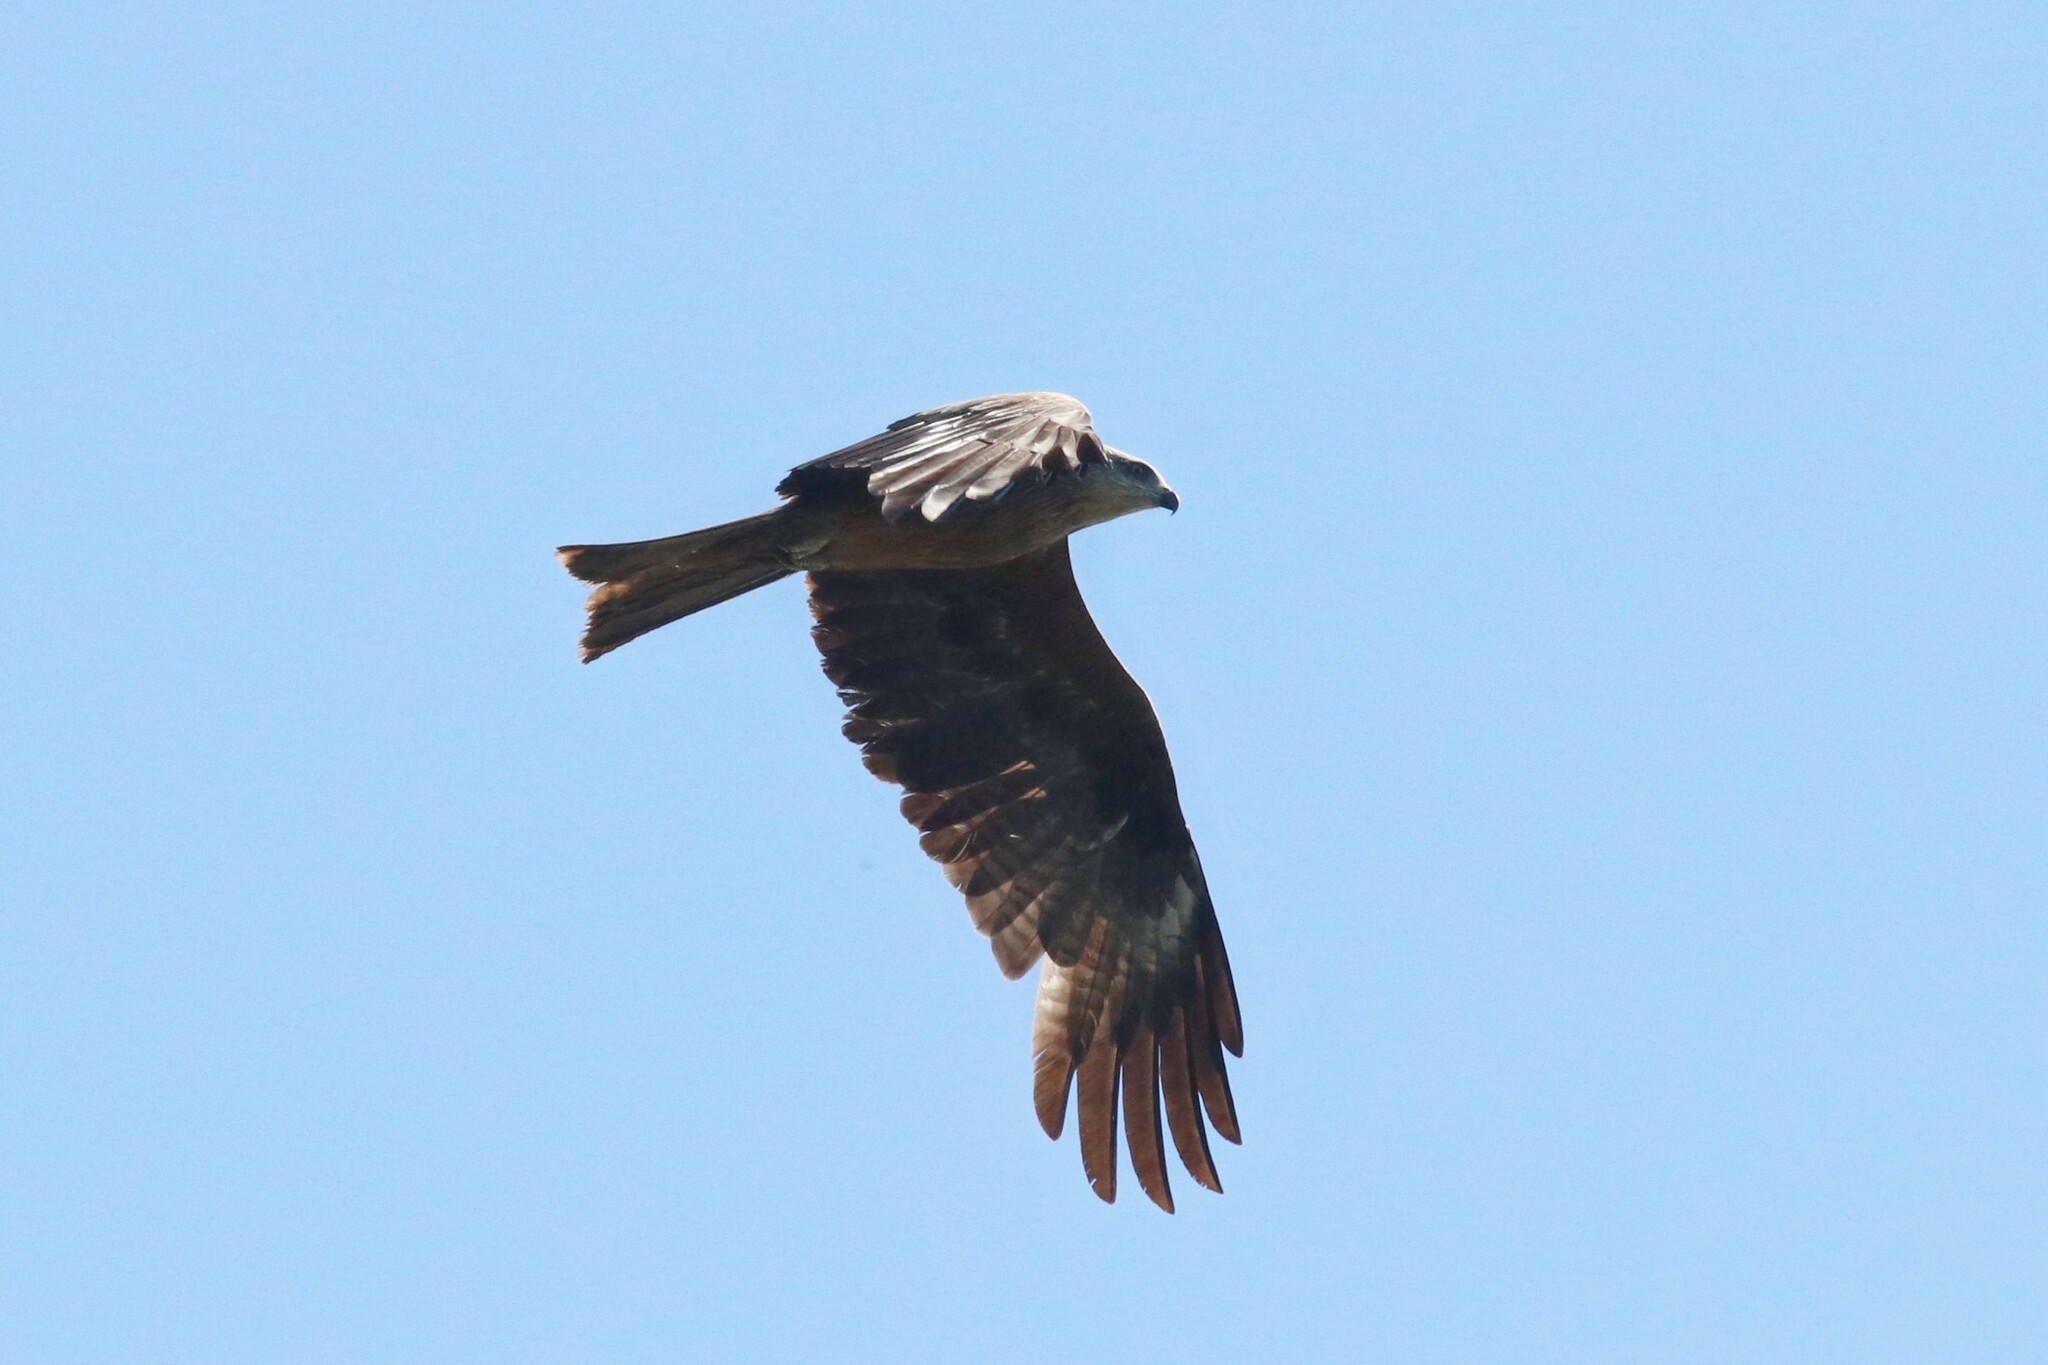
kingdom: Animalia
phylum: Chordata
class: Aves
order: Accipitriformes
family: Accipitridae
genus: Milvus
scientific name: Milvus migrans
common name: Black kite
